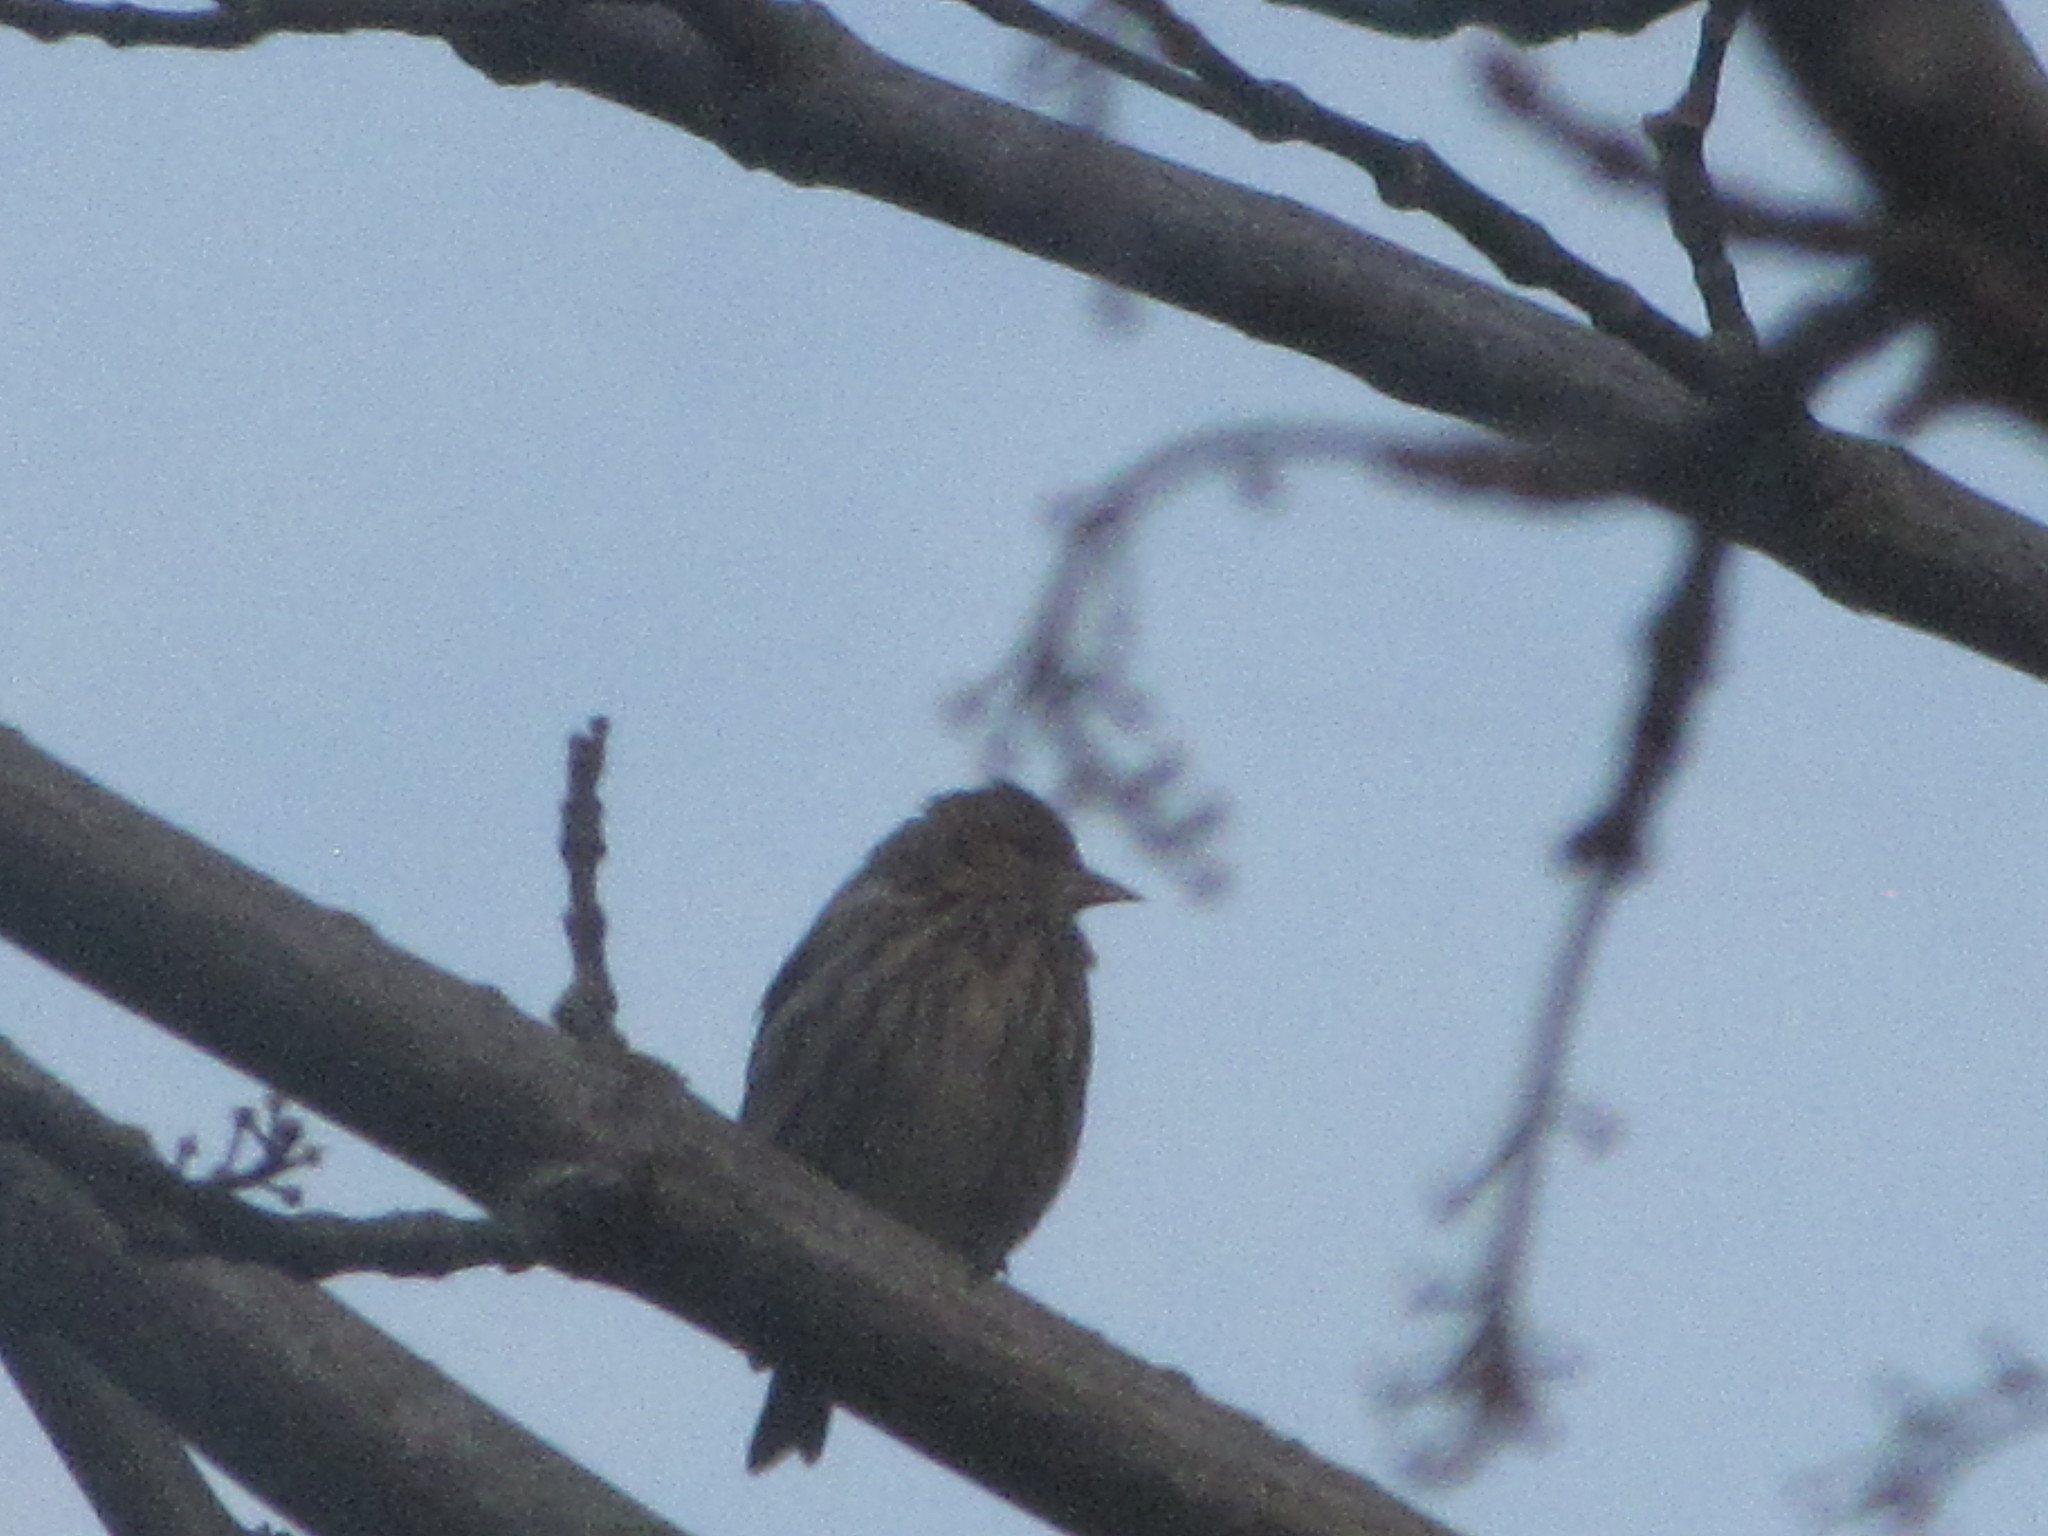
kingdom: Animalia
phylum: Chordata
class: Aves
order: Passeriformes
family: Fringillidae
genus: Spinus
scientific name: Spinus pinus
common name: Pine siskin
